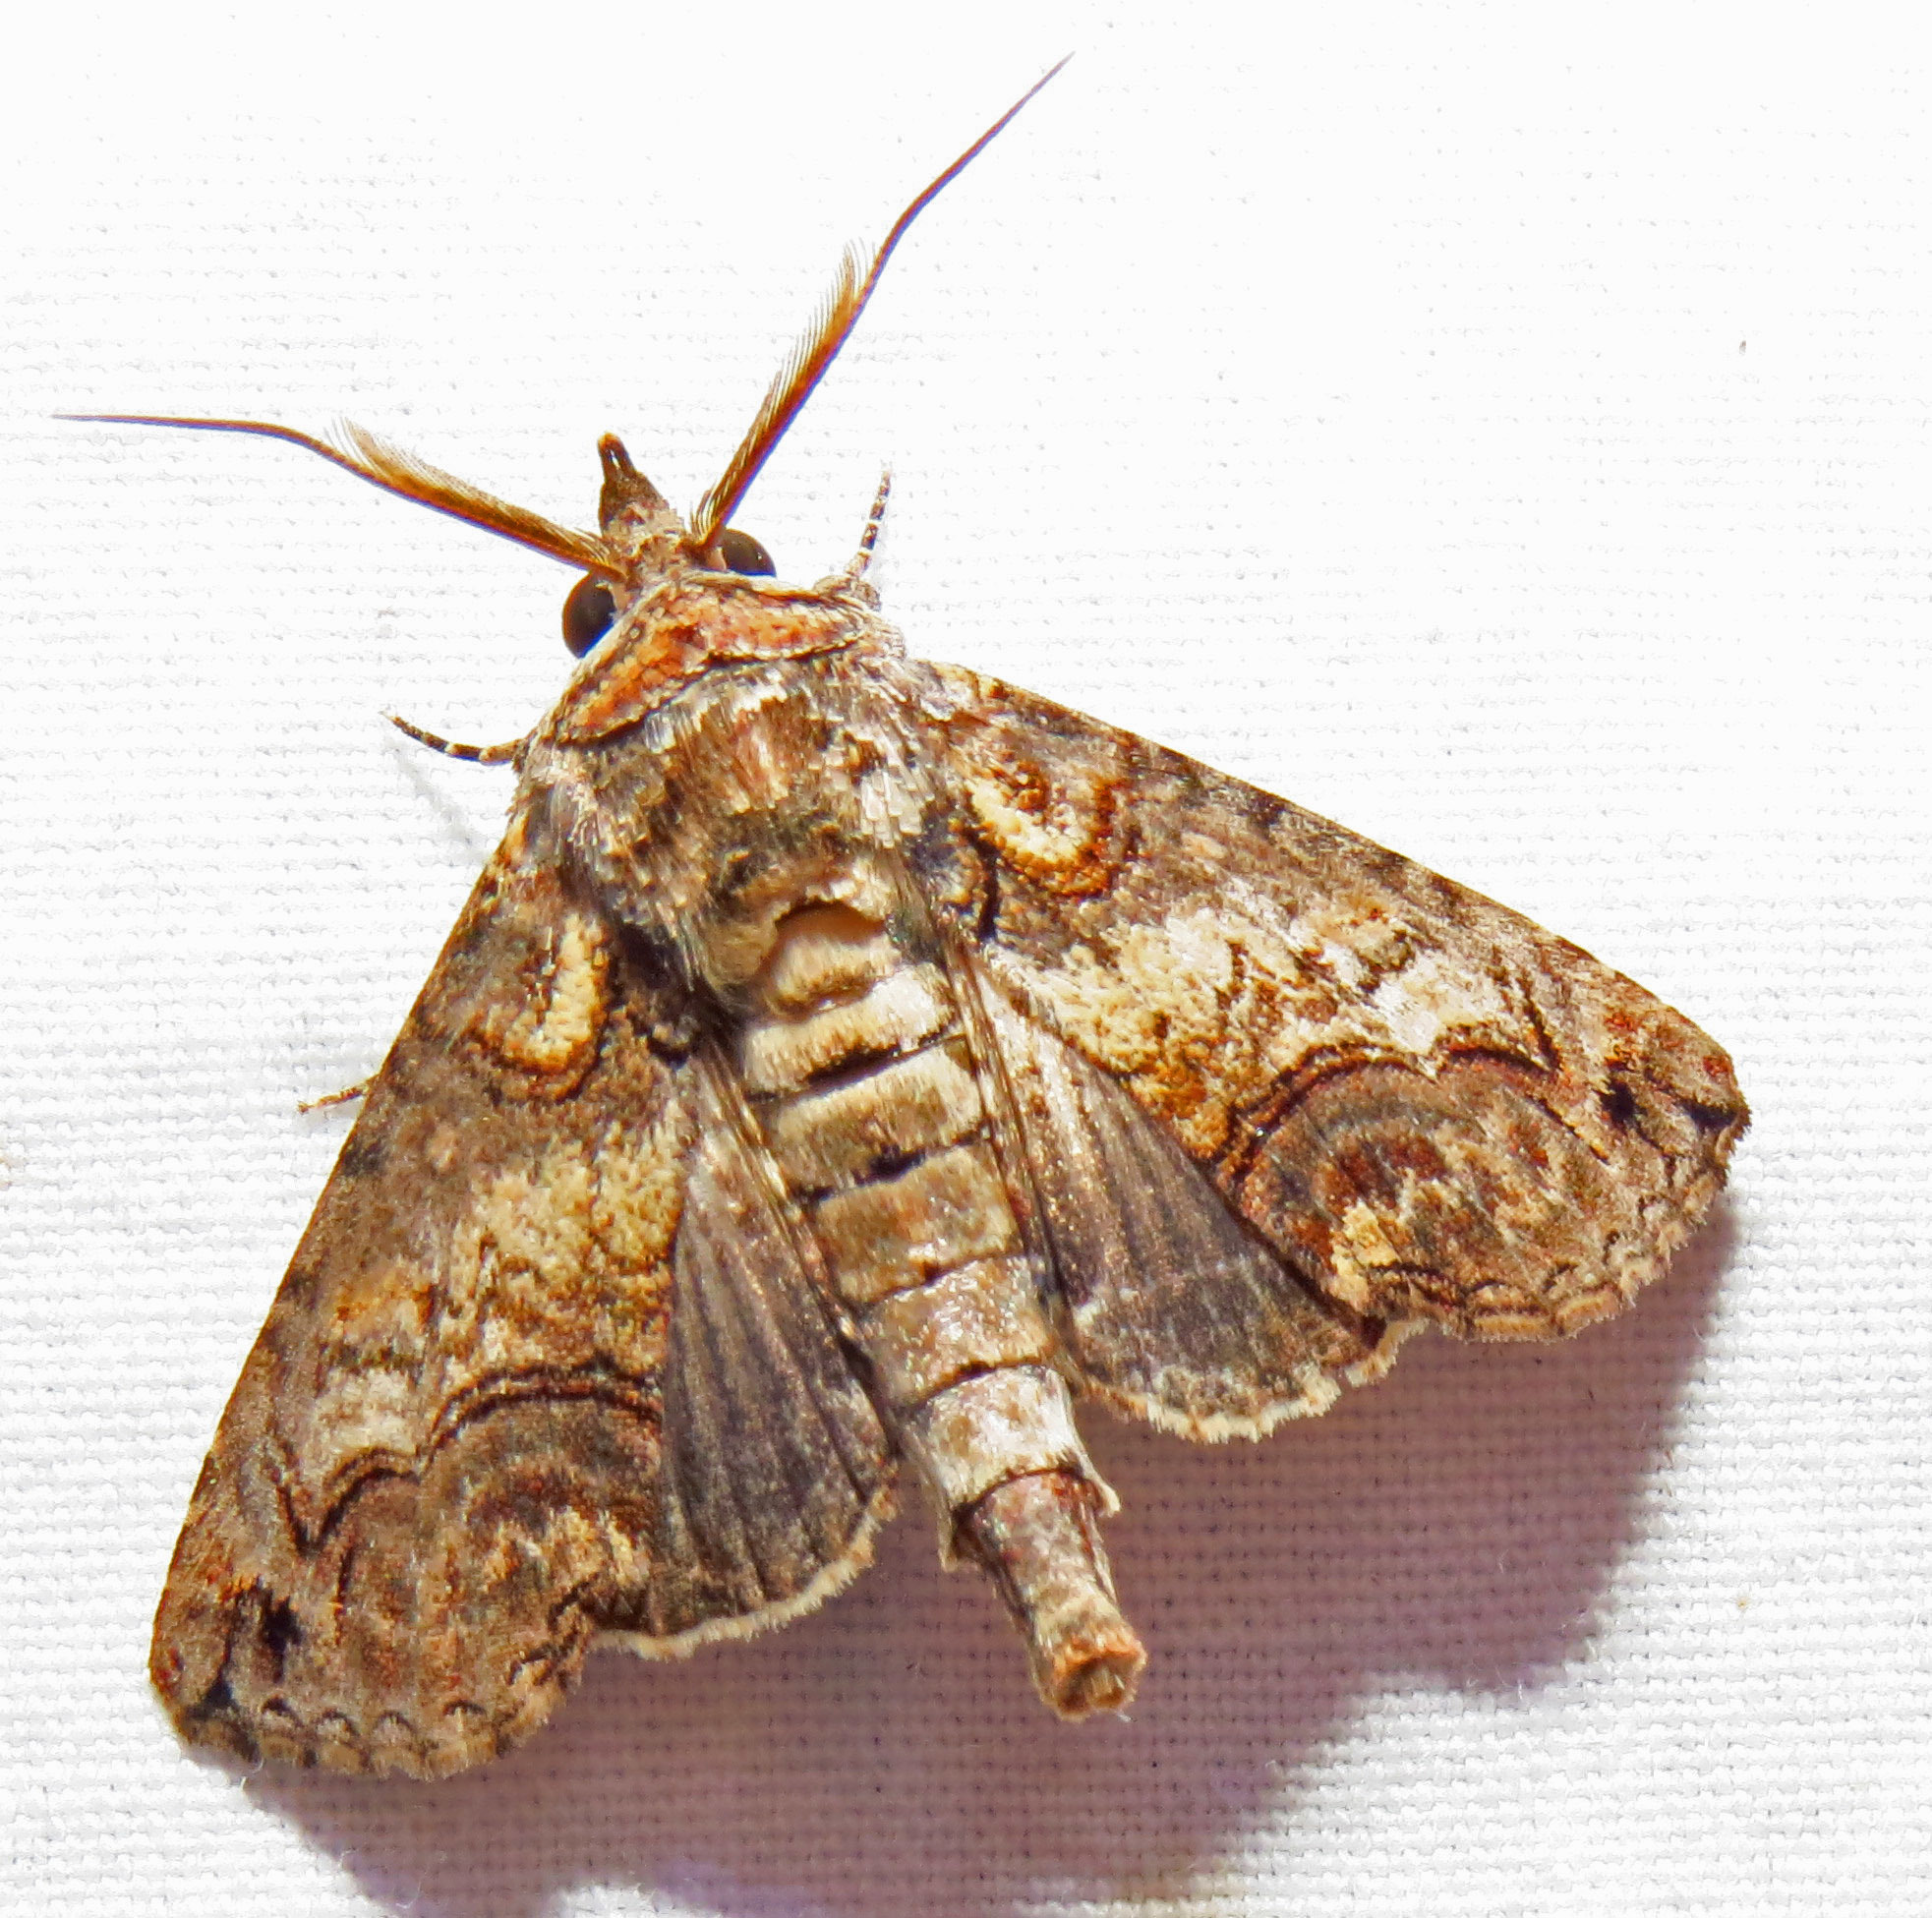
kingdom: Animalia
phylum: Arthropoda
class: Insecta
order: Lepidoptera
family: Euteliidae
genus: Paectes
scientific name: Paectes abrostoloides
